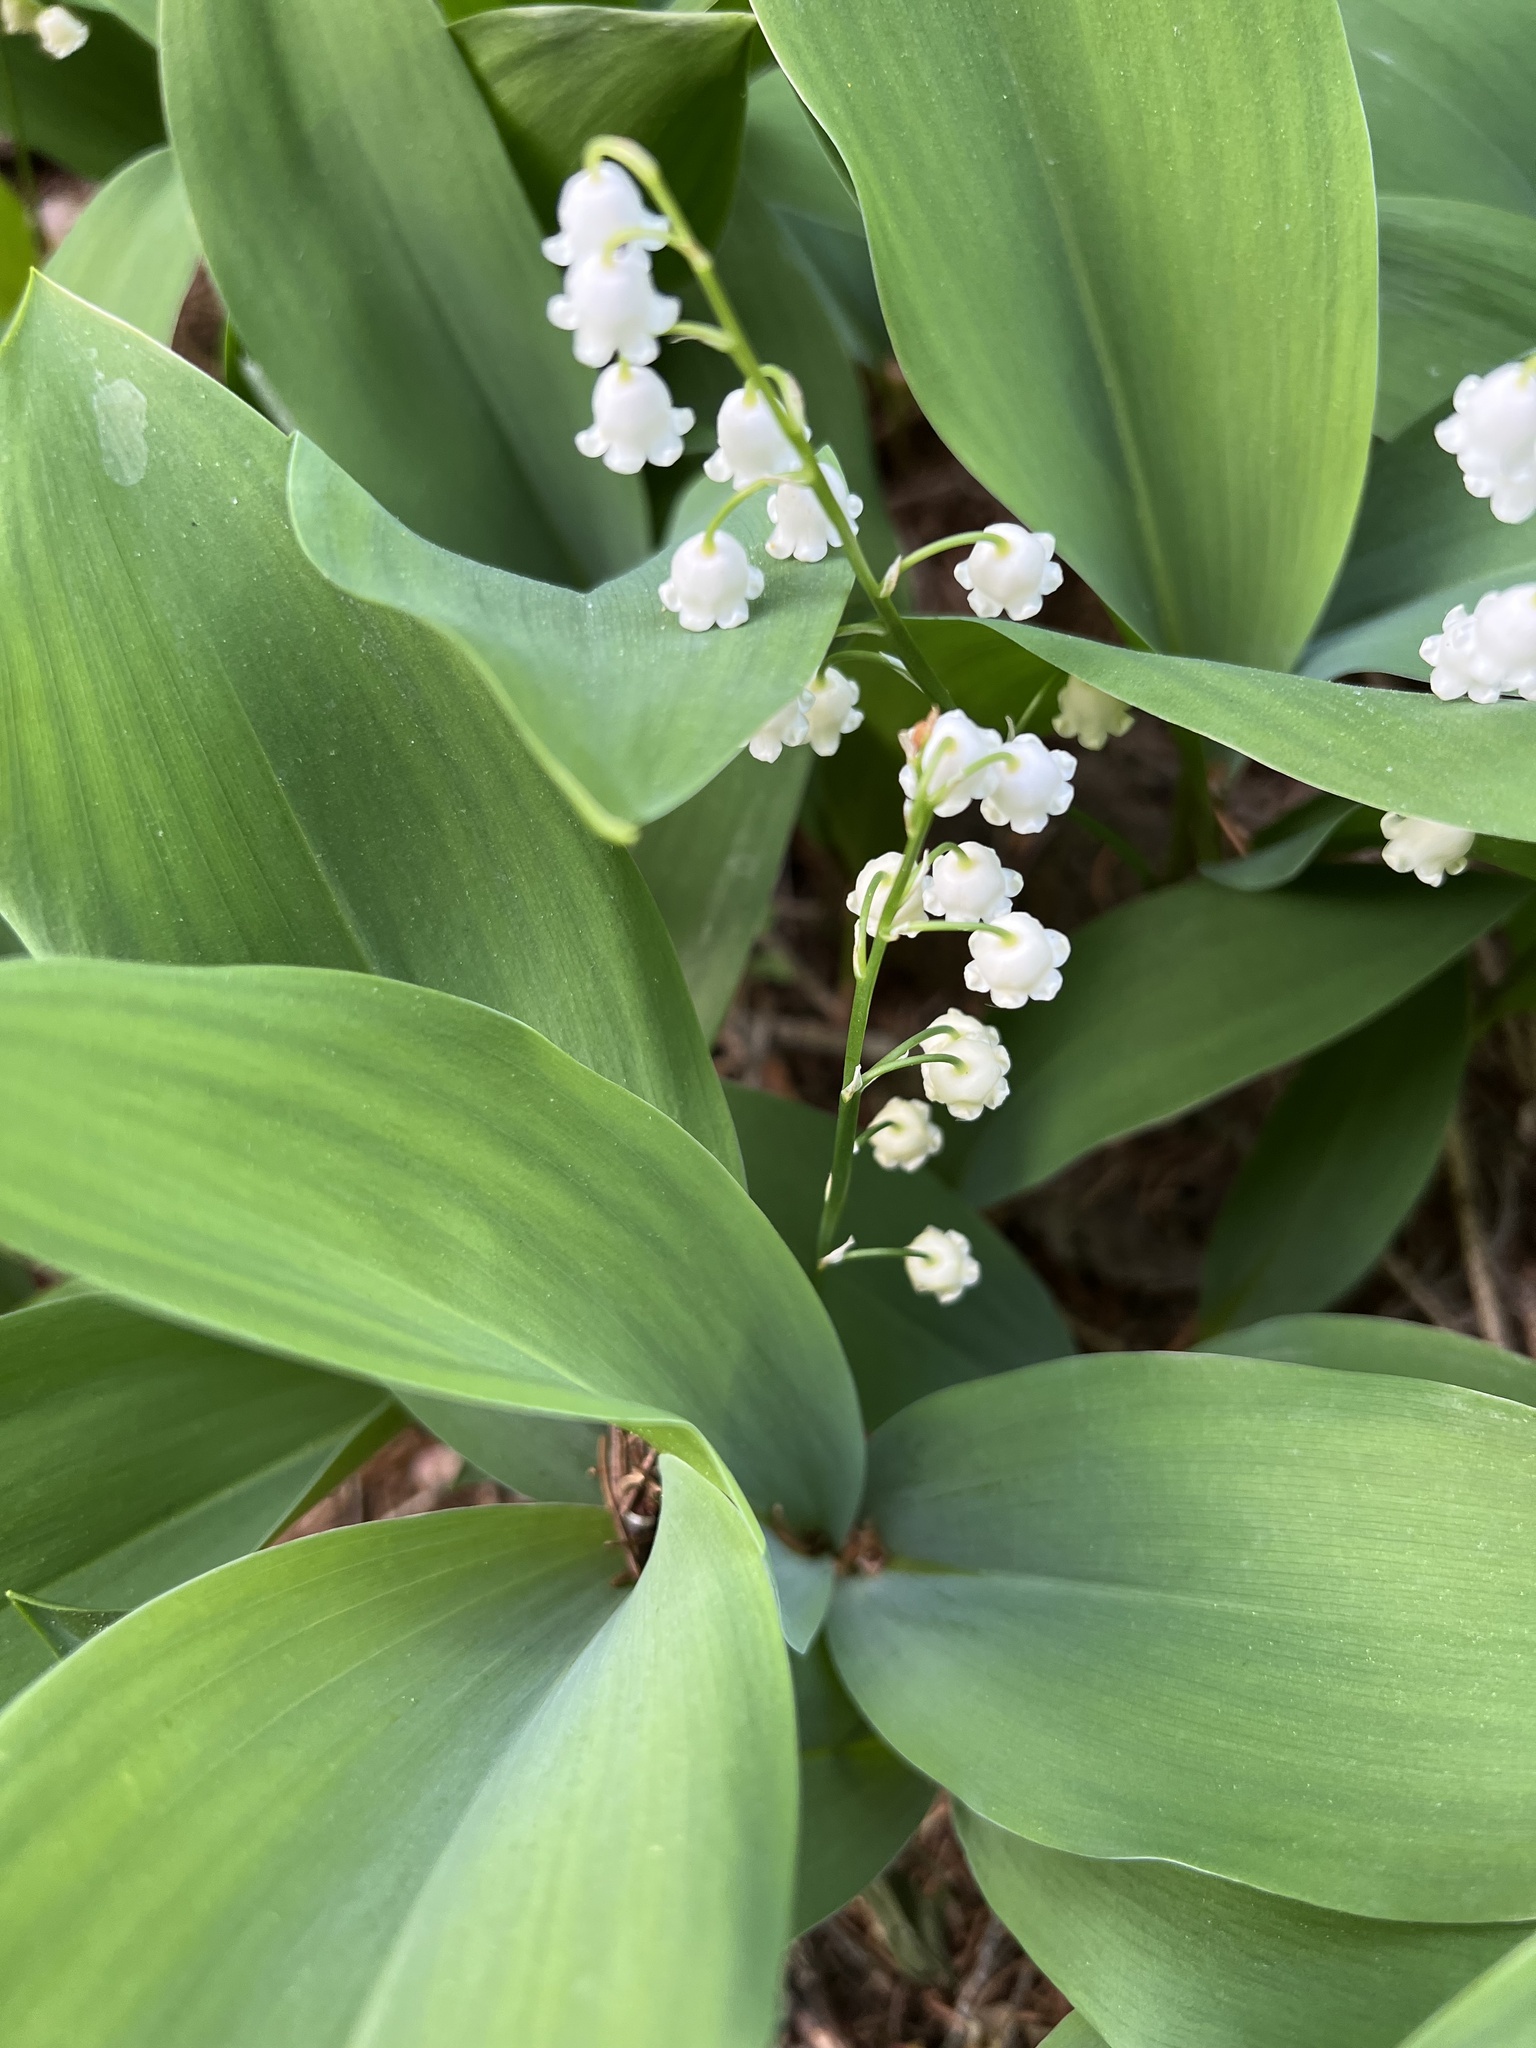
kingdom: Plantae
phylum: Tracheophyta
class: Liliopsida
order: Asparagales
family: Asparagaceae
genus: Convallaria
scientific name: Convallaria majalis
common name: Lily-of-the-valley
